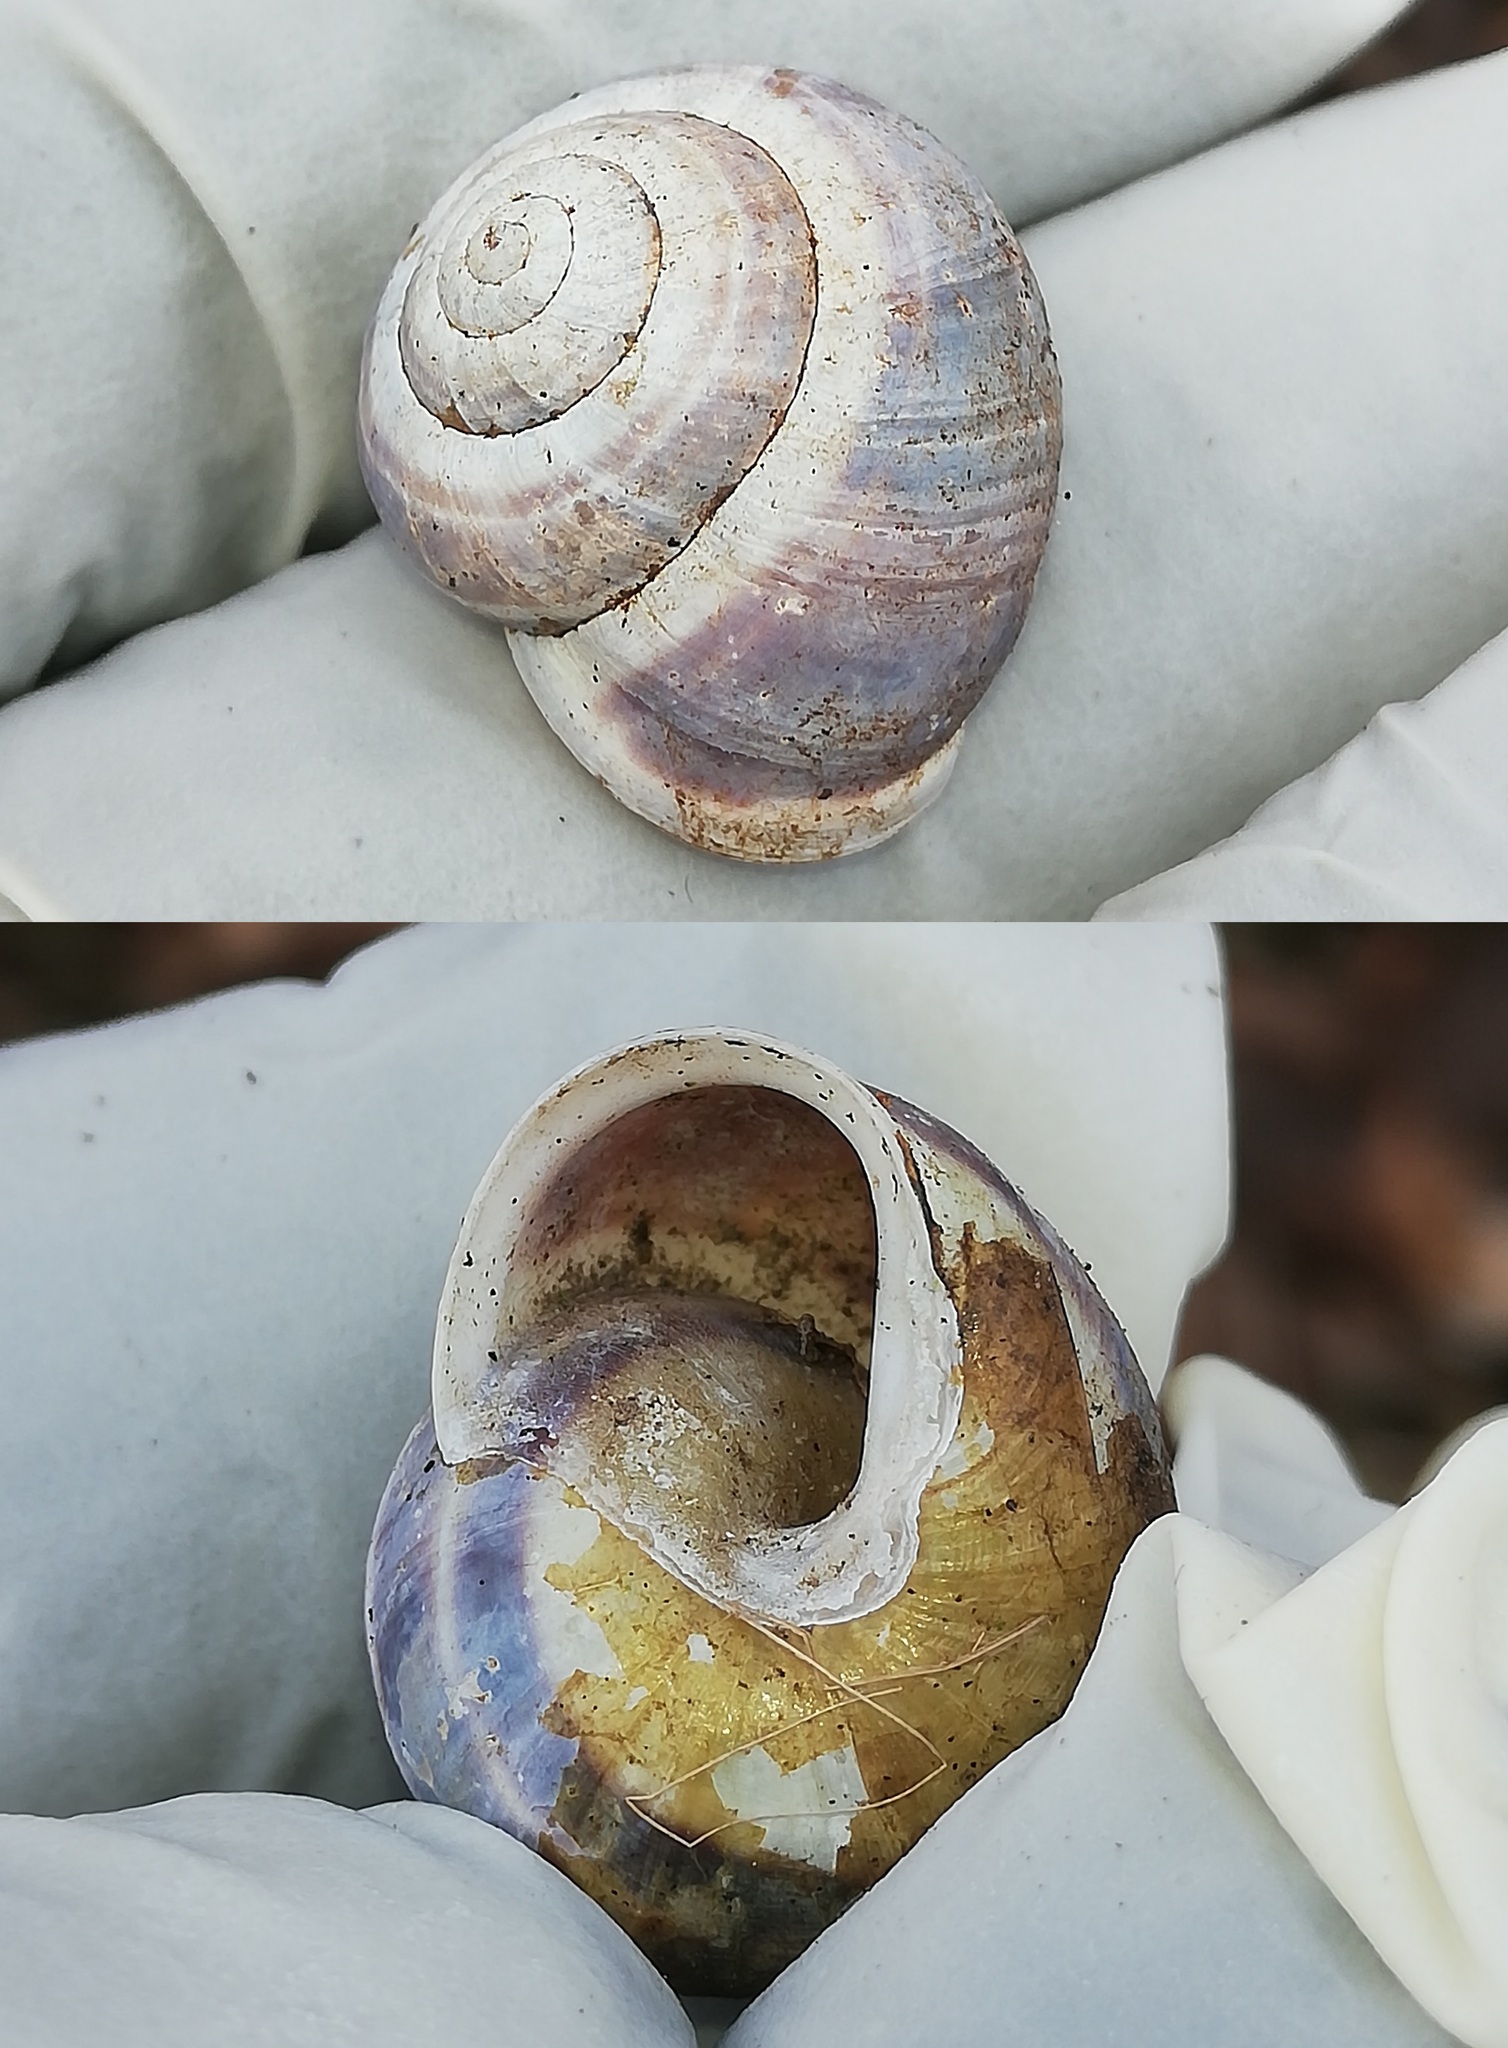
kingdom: Animalia
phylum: Mollusca
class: Gastropoda
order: Stylommatophora
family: Helicidae
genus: Cepaea
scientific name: Cepaea hortensis
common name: White-lip gardensnail
